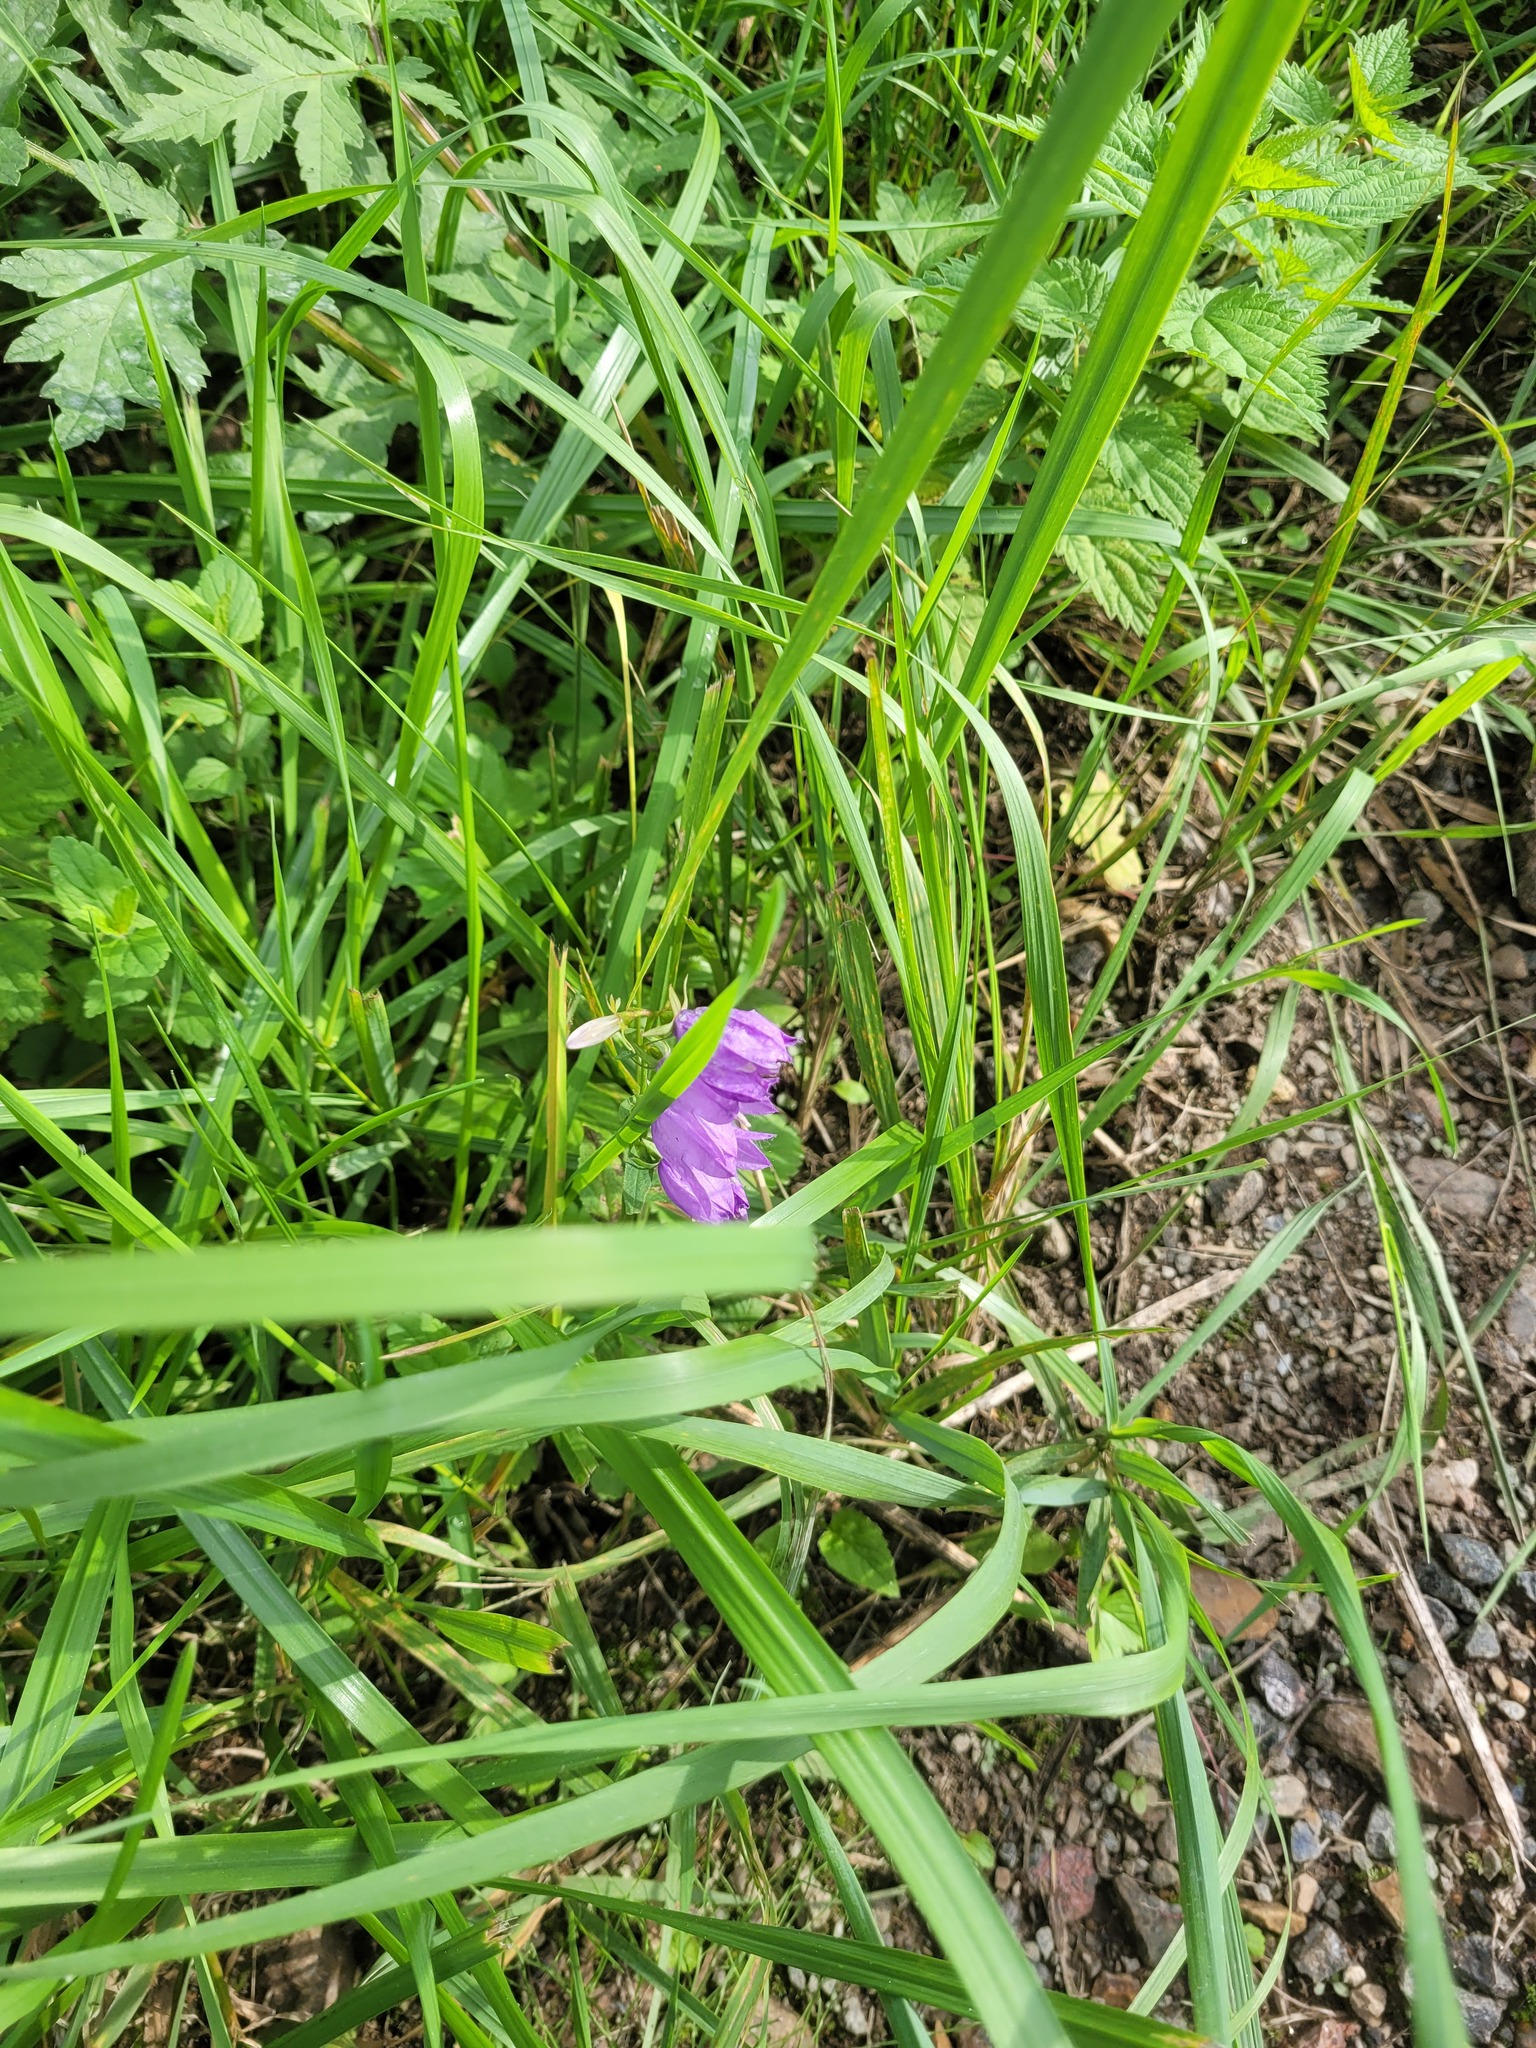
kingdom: Plantae
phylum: Tracheophyta
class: Magnoliopsida
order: Asterales
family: Campanulaceae
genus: Campanula
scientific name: Campanula rapunculoides
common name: Creeping bellflower
